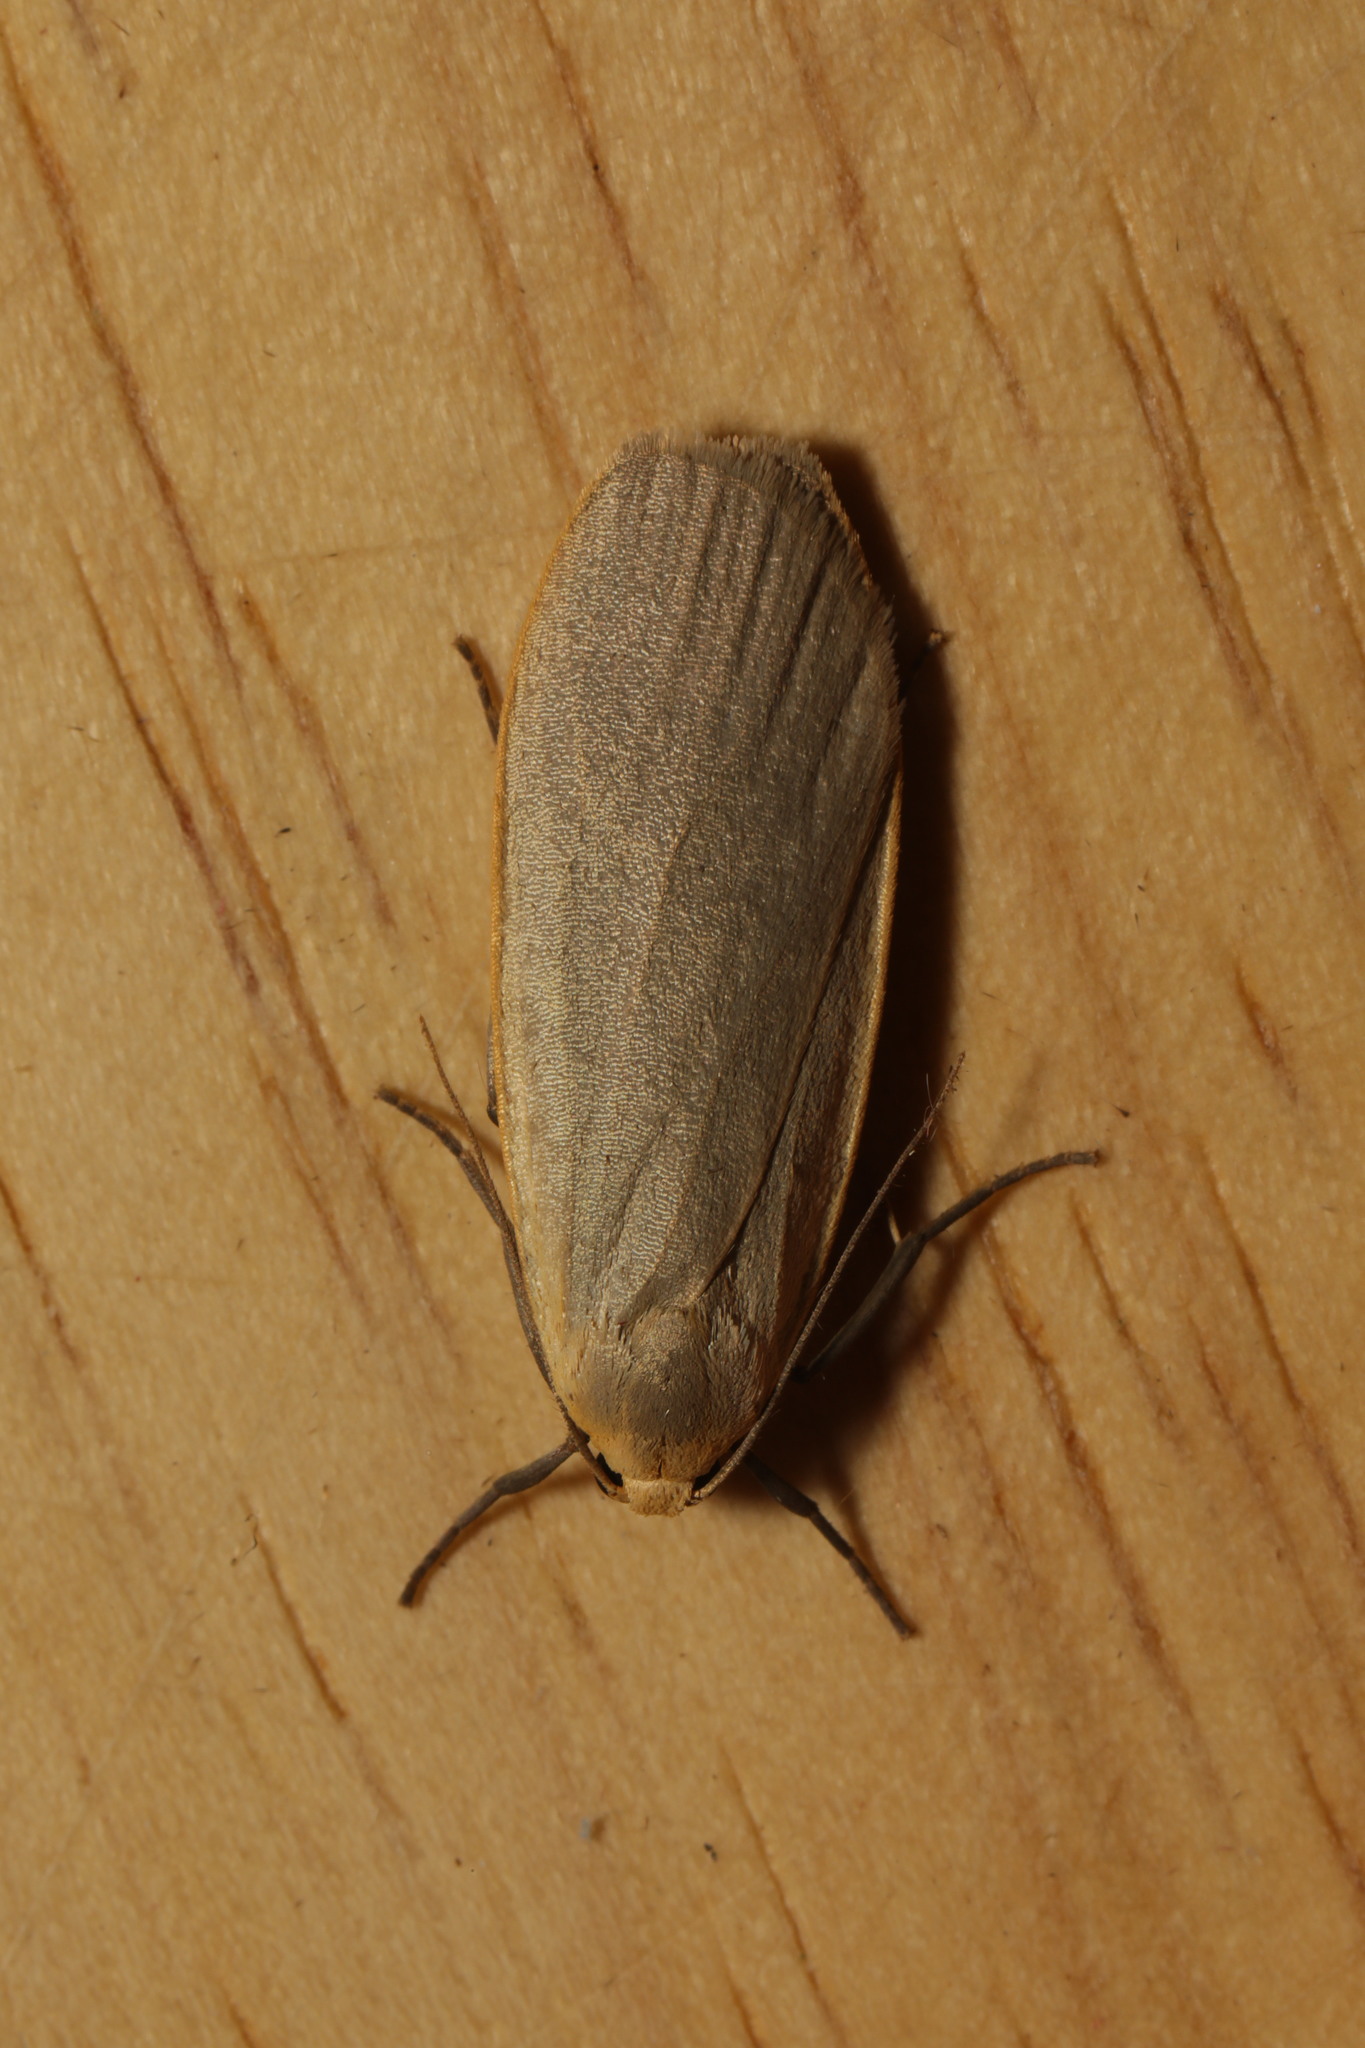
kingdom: Animalia
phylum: Arthropoda
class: Insecta
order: Lepidoptera
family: Erebidae
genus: Collita
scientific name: Collita griseola
